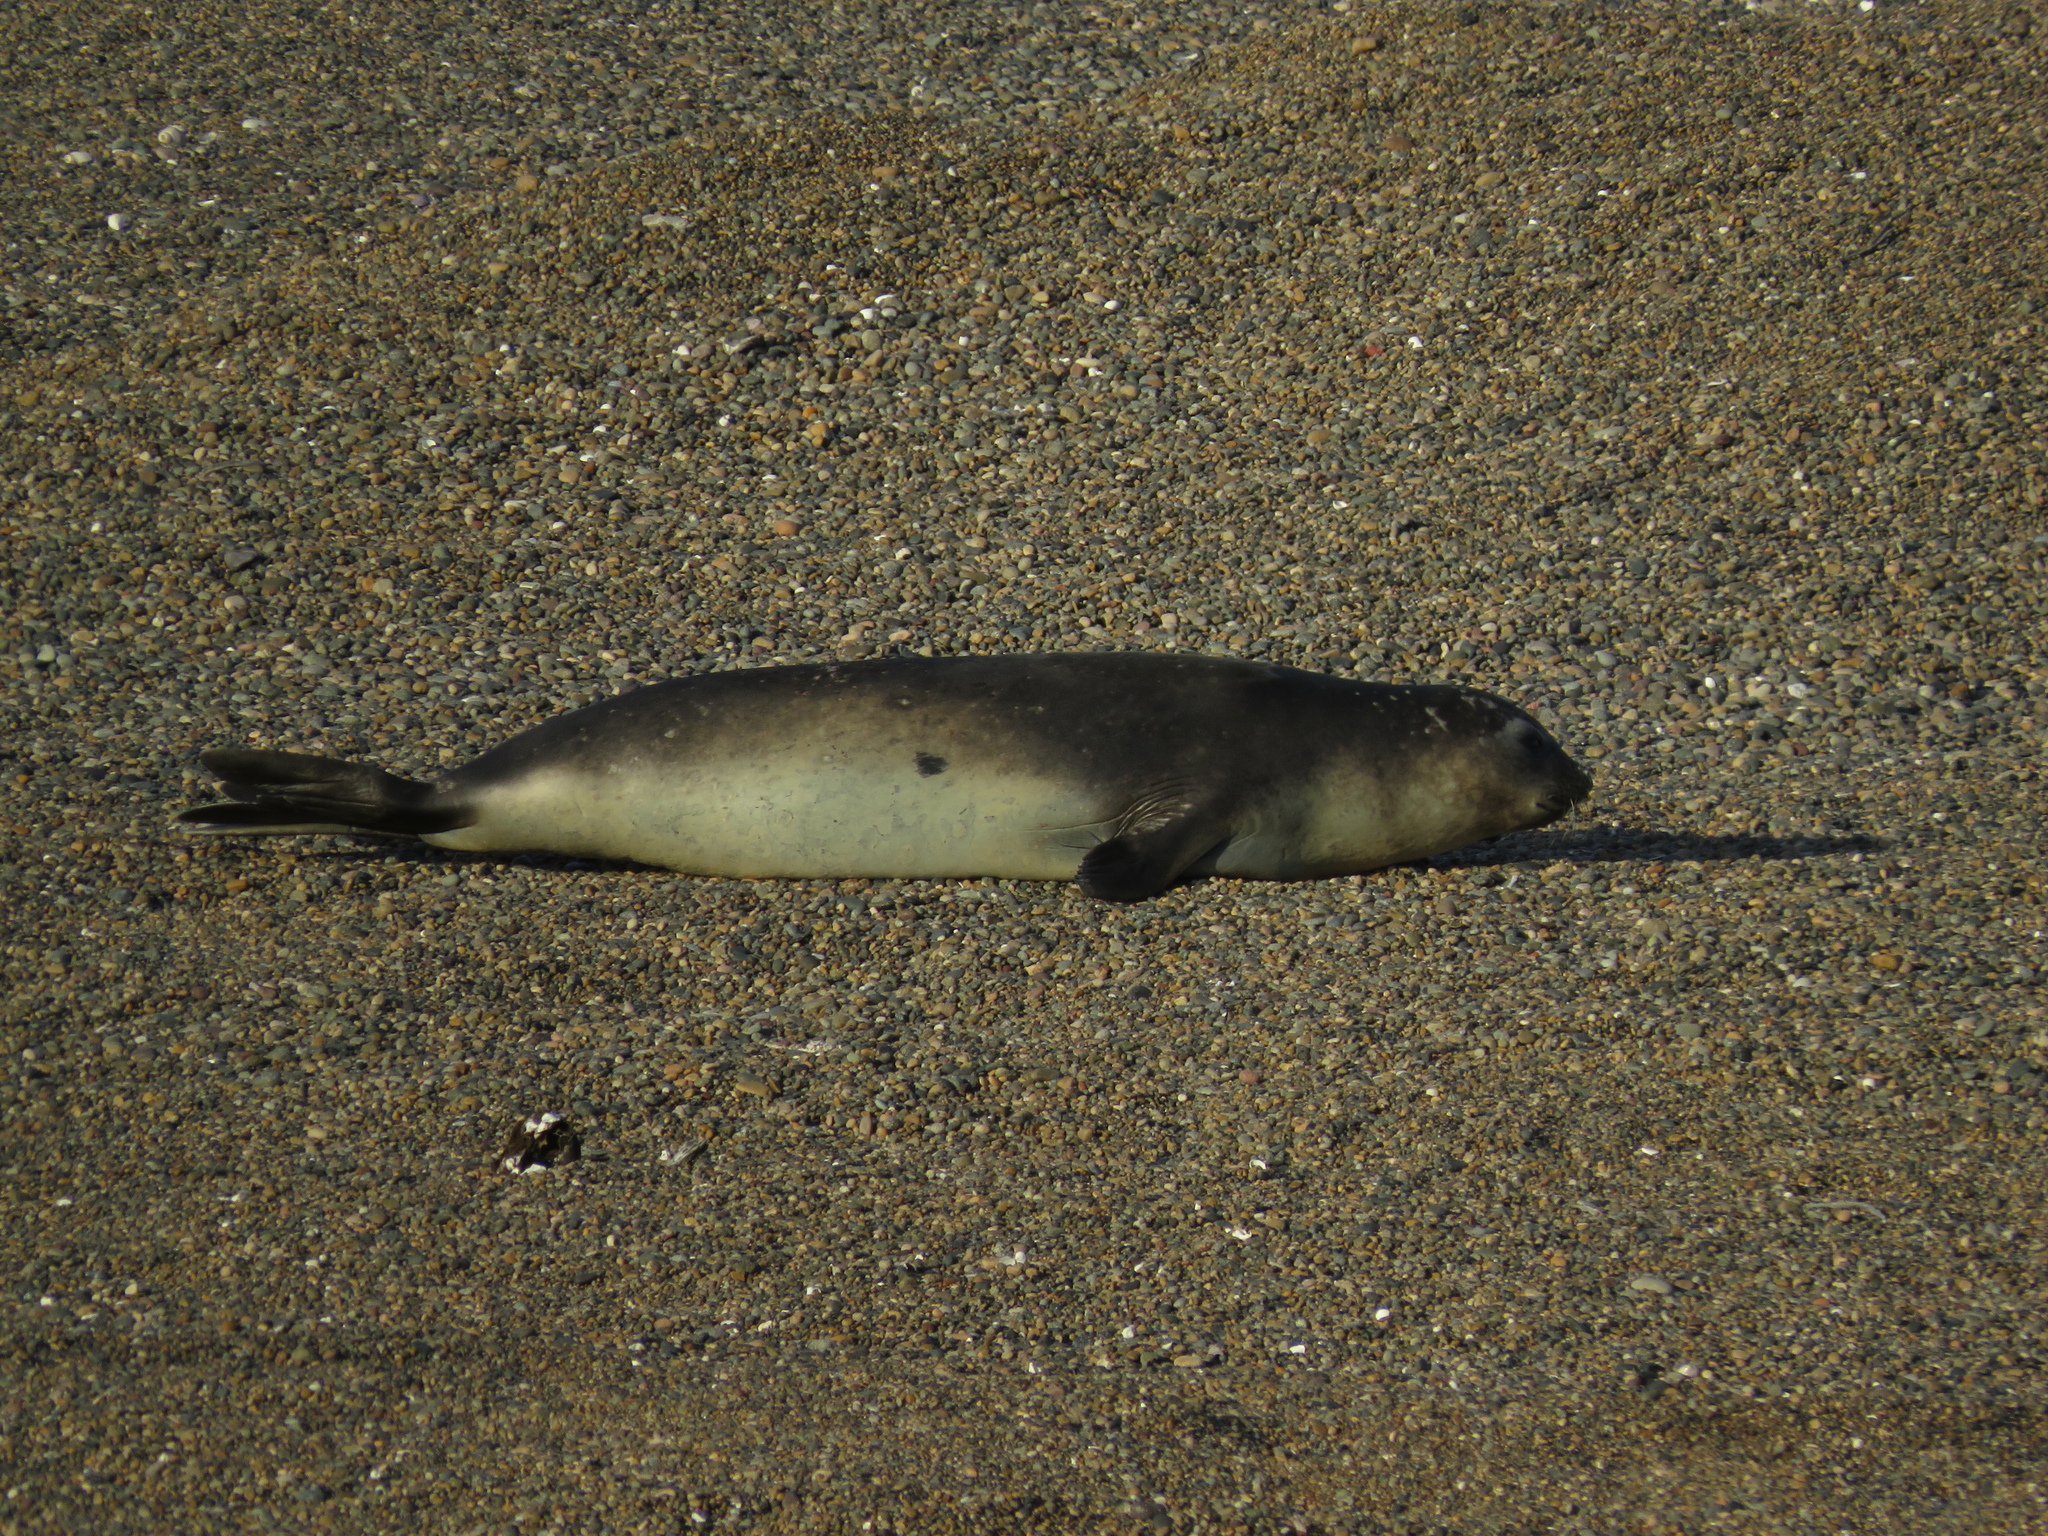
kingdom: Animalia
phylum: Chordata
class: Mammalia
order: Carnivora
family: Phocidae
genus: Mirounga
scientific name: Mirounga leonina
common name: Southern elephant seal
